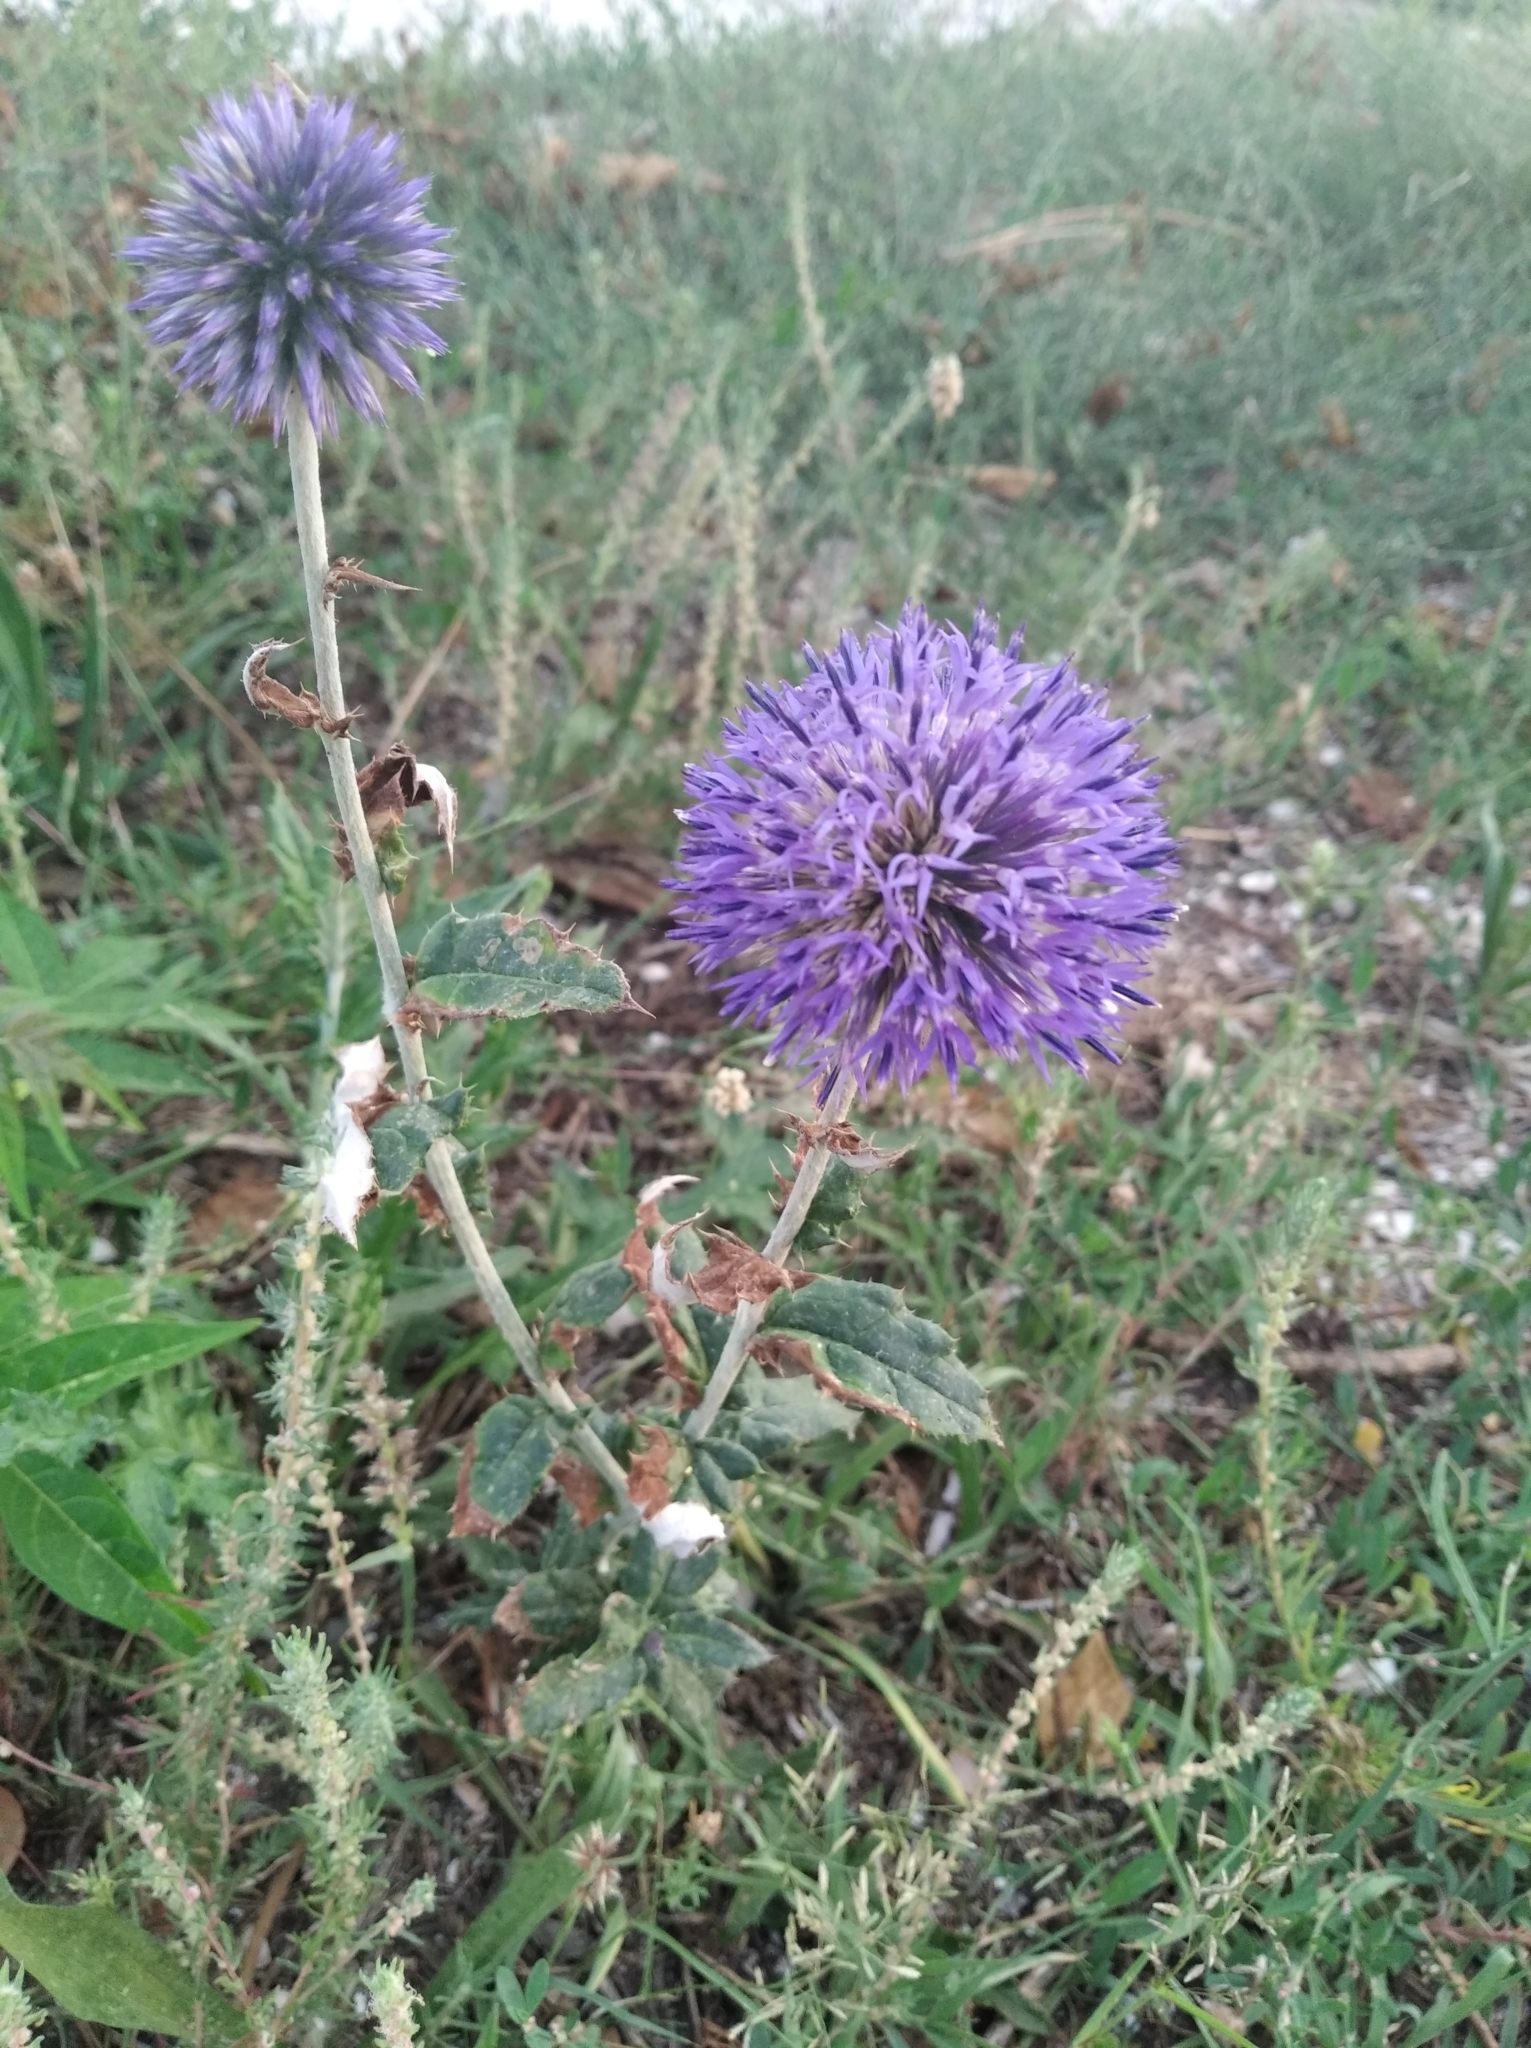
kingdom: Plantae
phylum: Tracheophyta
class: Magnoliopsida
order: Asterales
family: Asteraceae
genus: Echinops
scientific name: Echinops ritro
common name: Globe thistle
